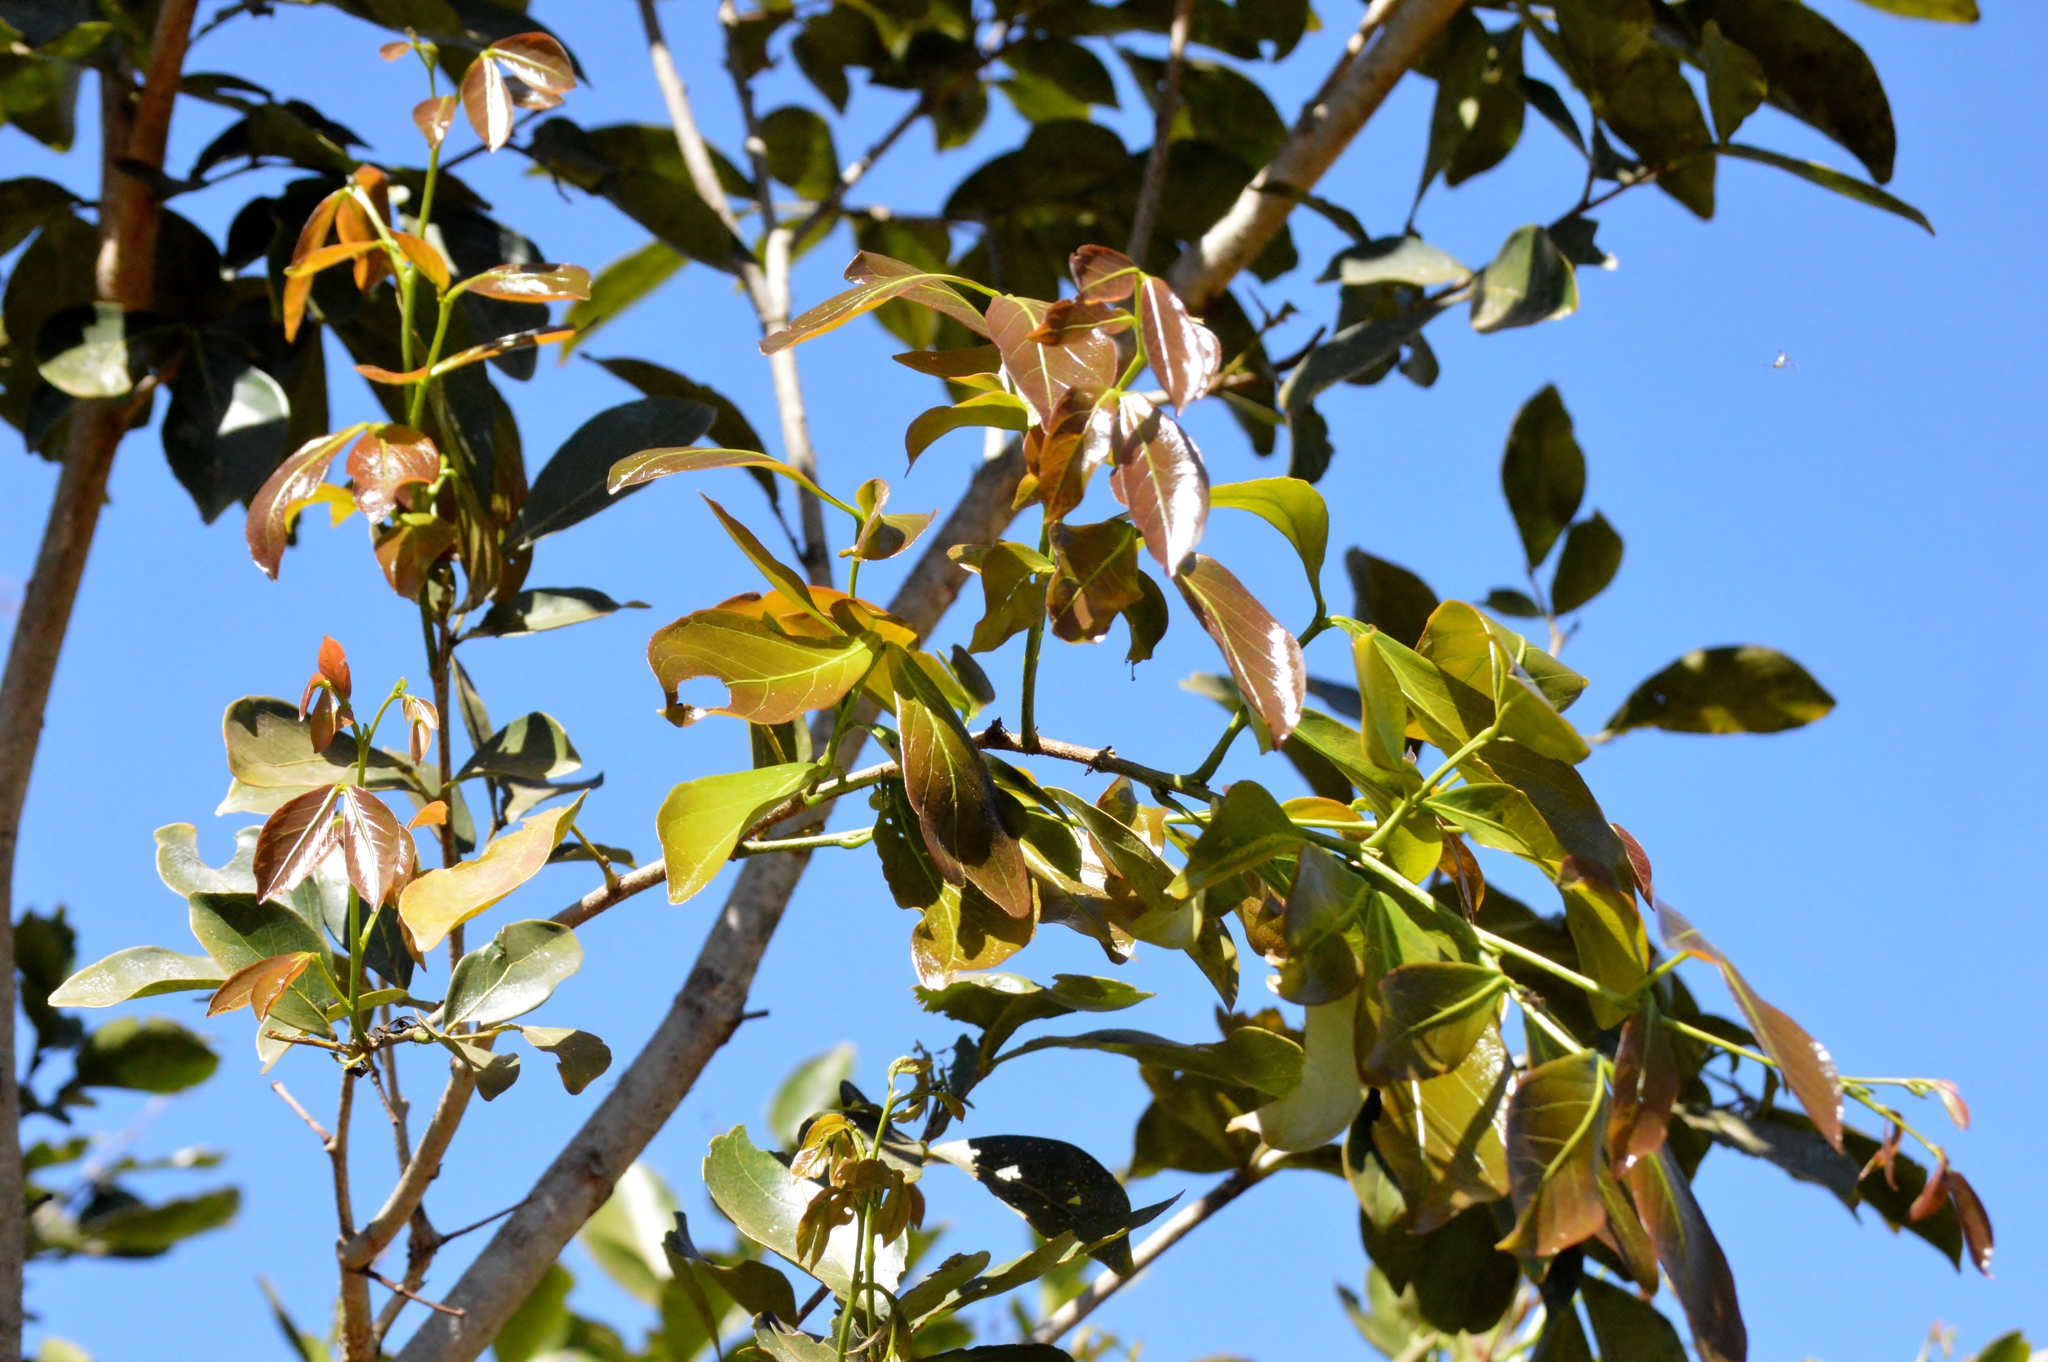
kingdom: Plantae
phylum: Tracheophyta
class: Magnoliopsida
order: Fabales
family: Fabaceae
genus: Inga
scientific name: Inga laurina
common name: Red wood
